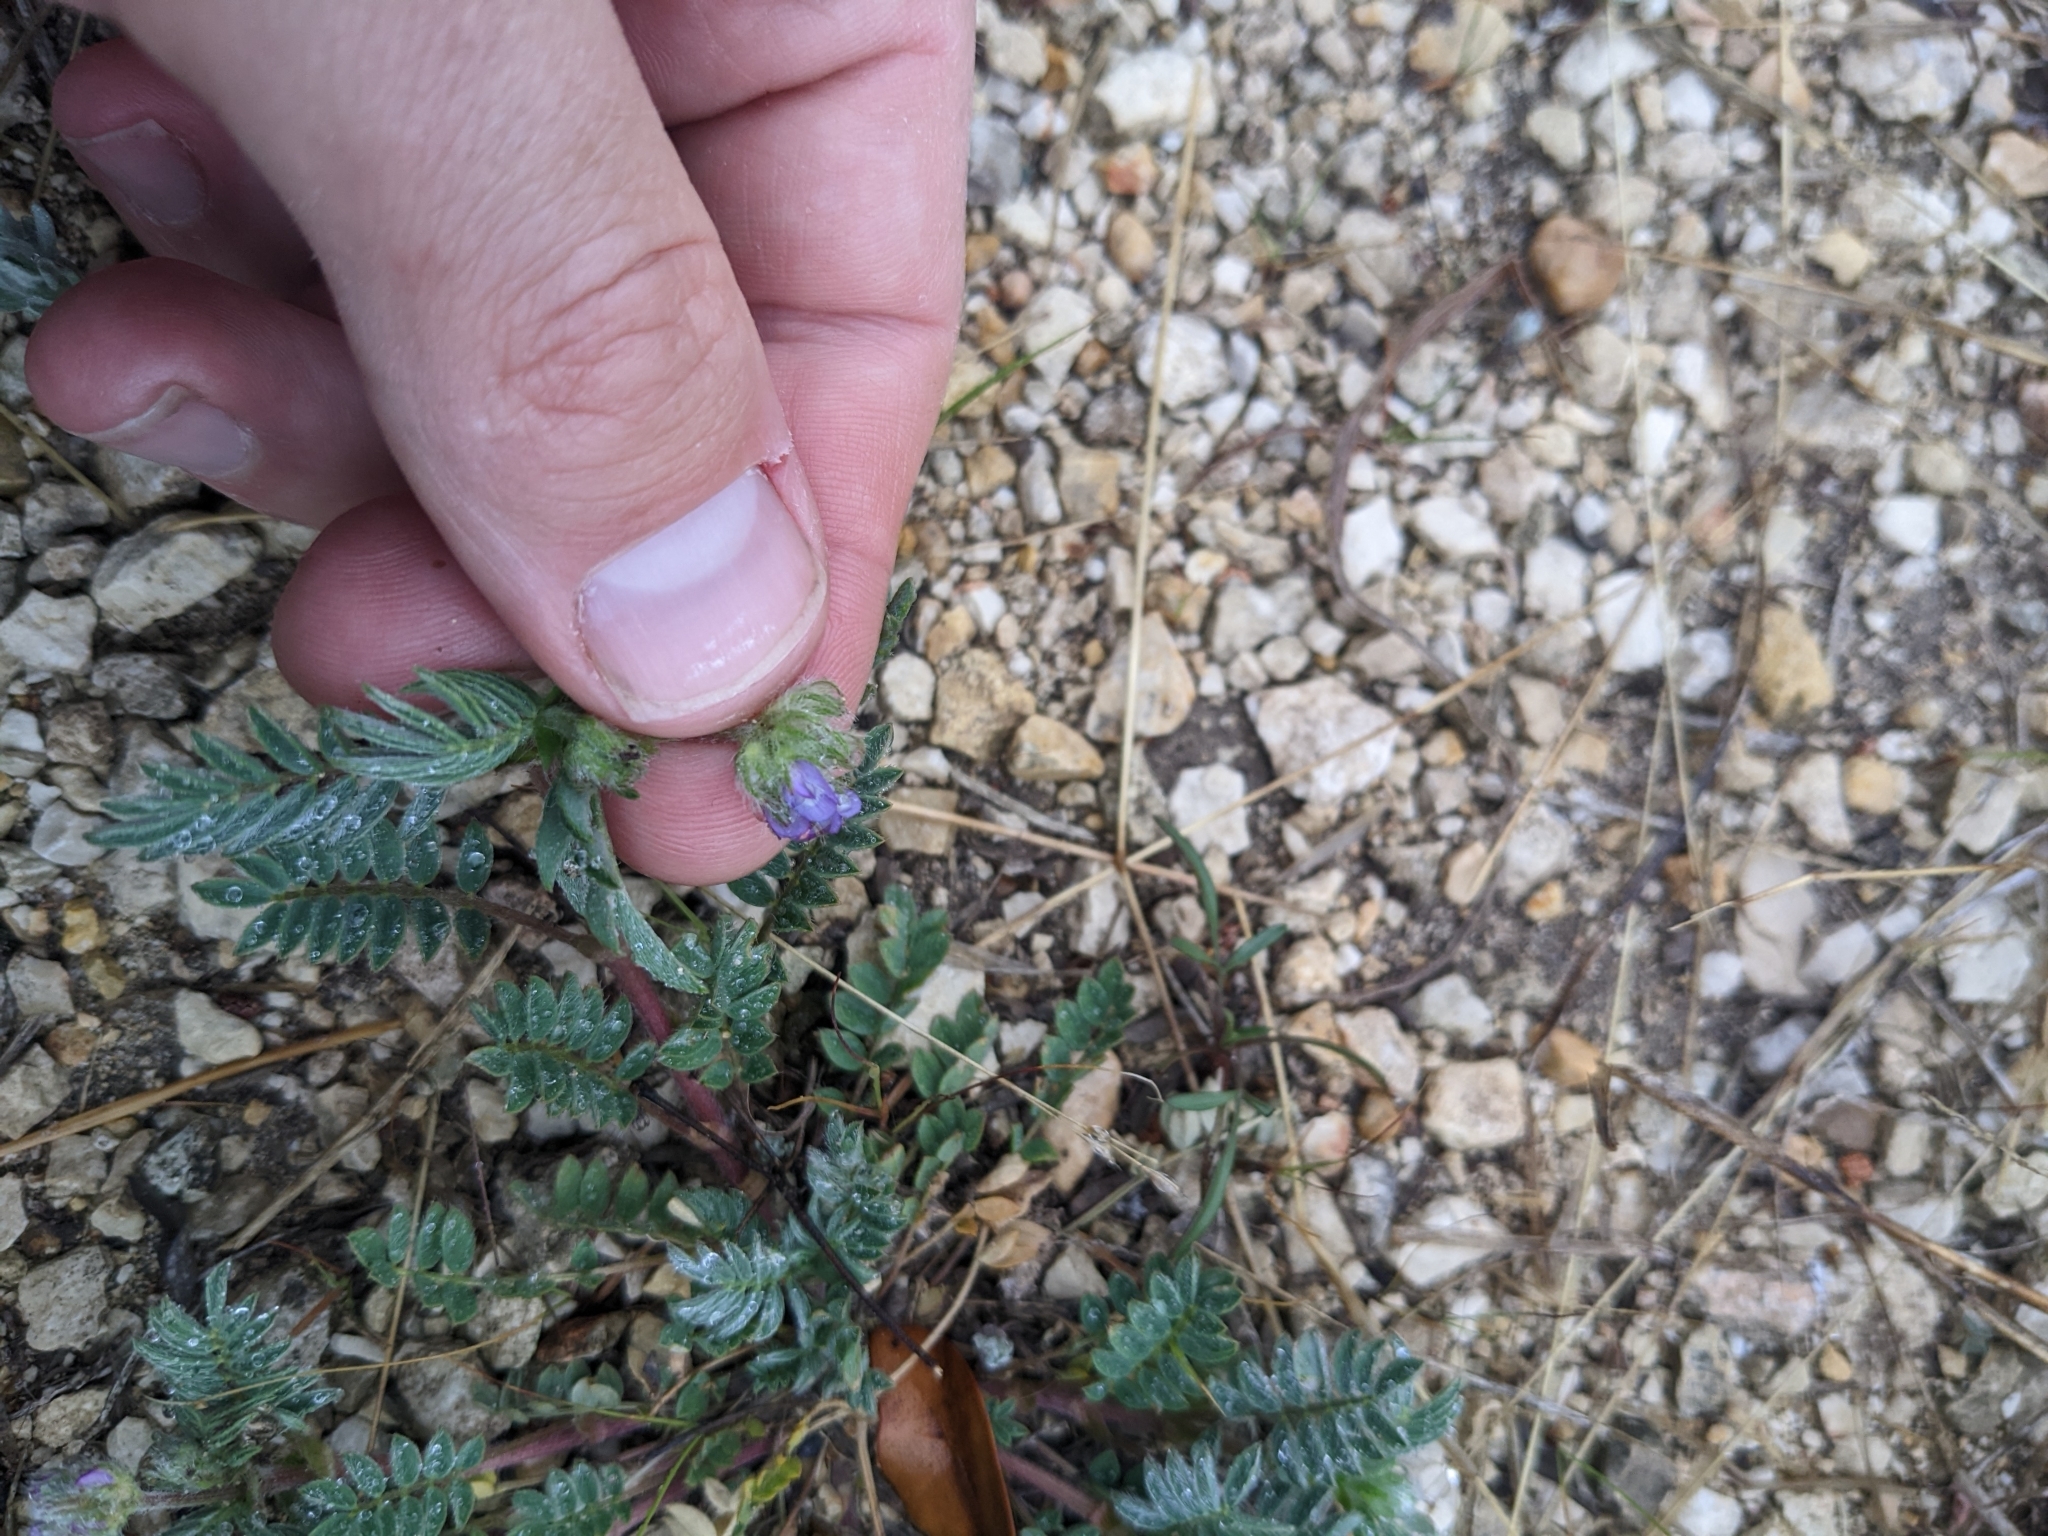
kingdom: Plantae
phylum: Tracheophyta
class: Magnoliopsida
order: Fabales
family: Fabaceae
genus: Astragalus
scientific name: Astragalus wrightii
